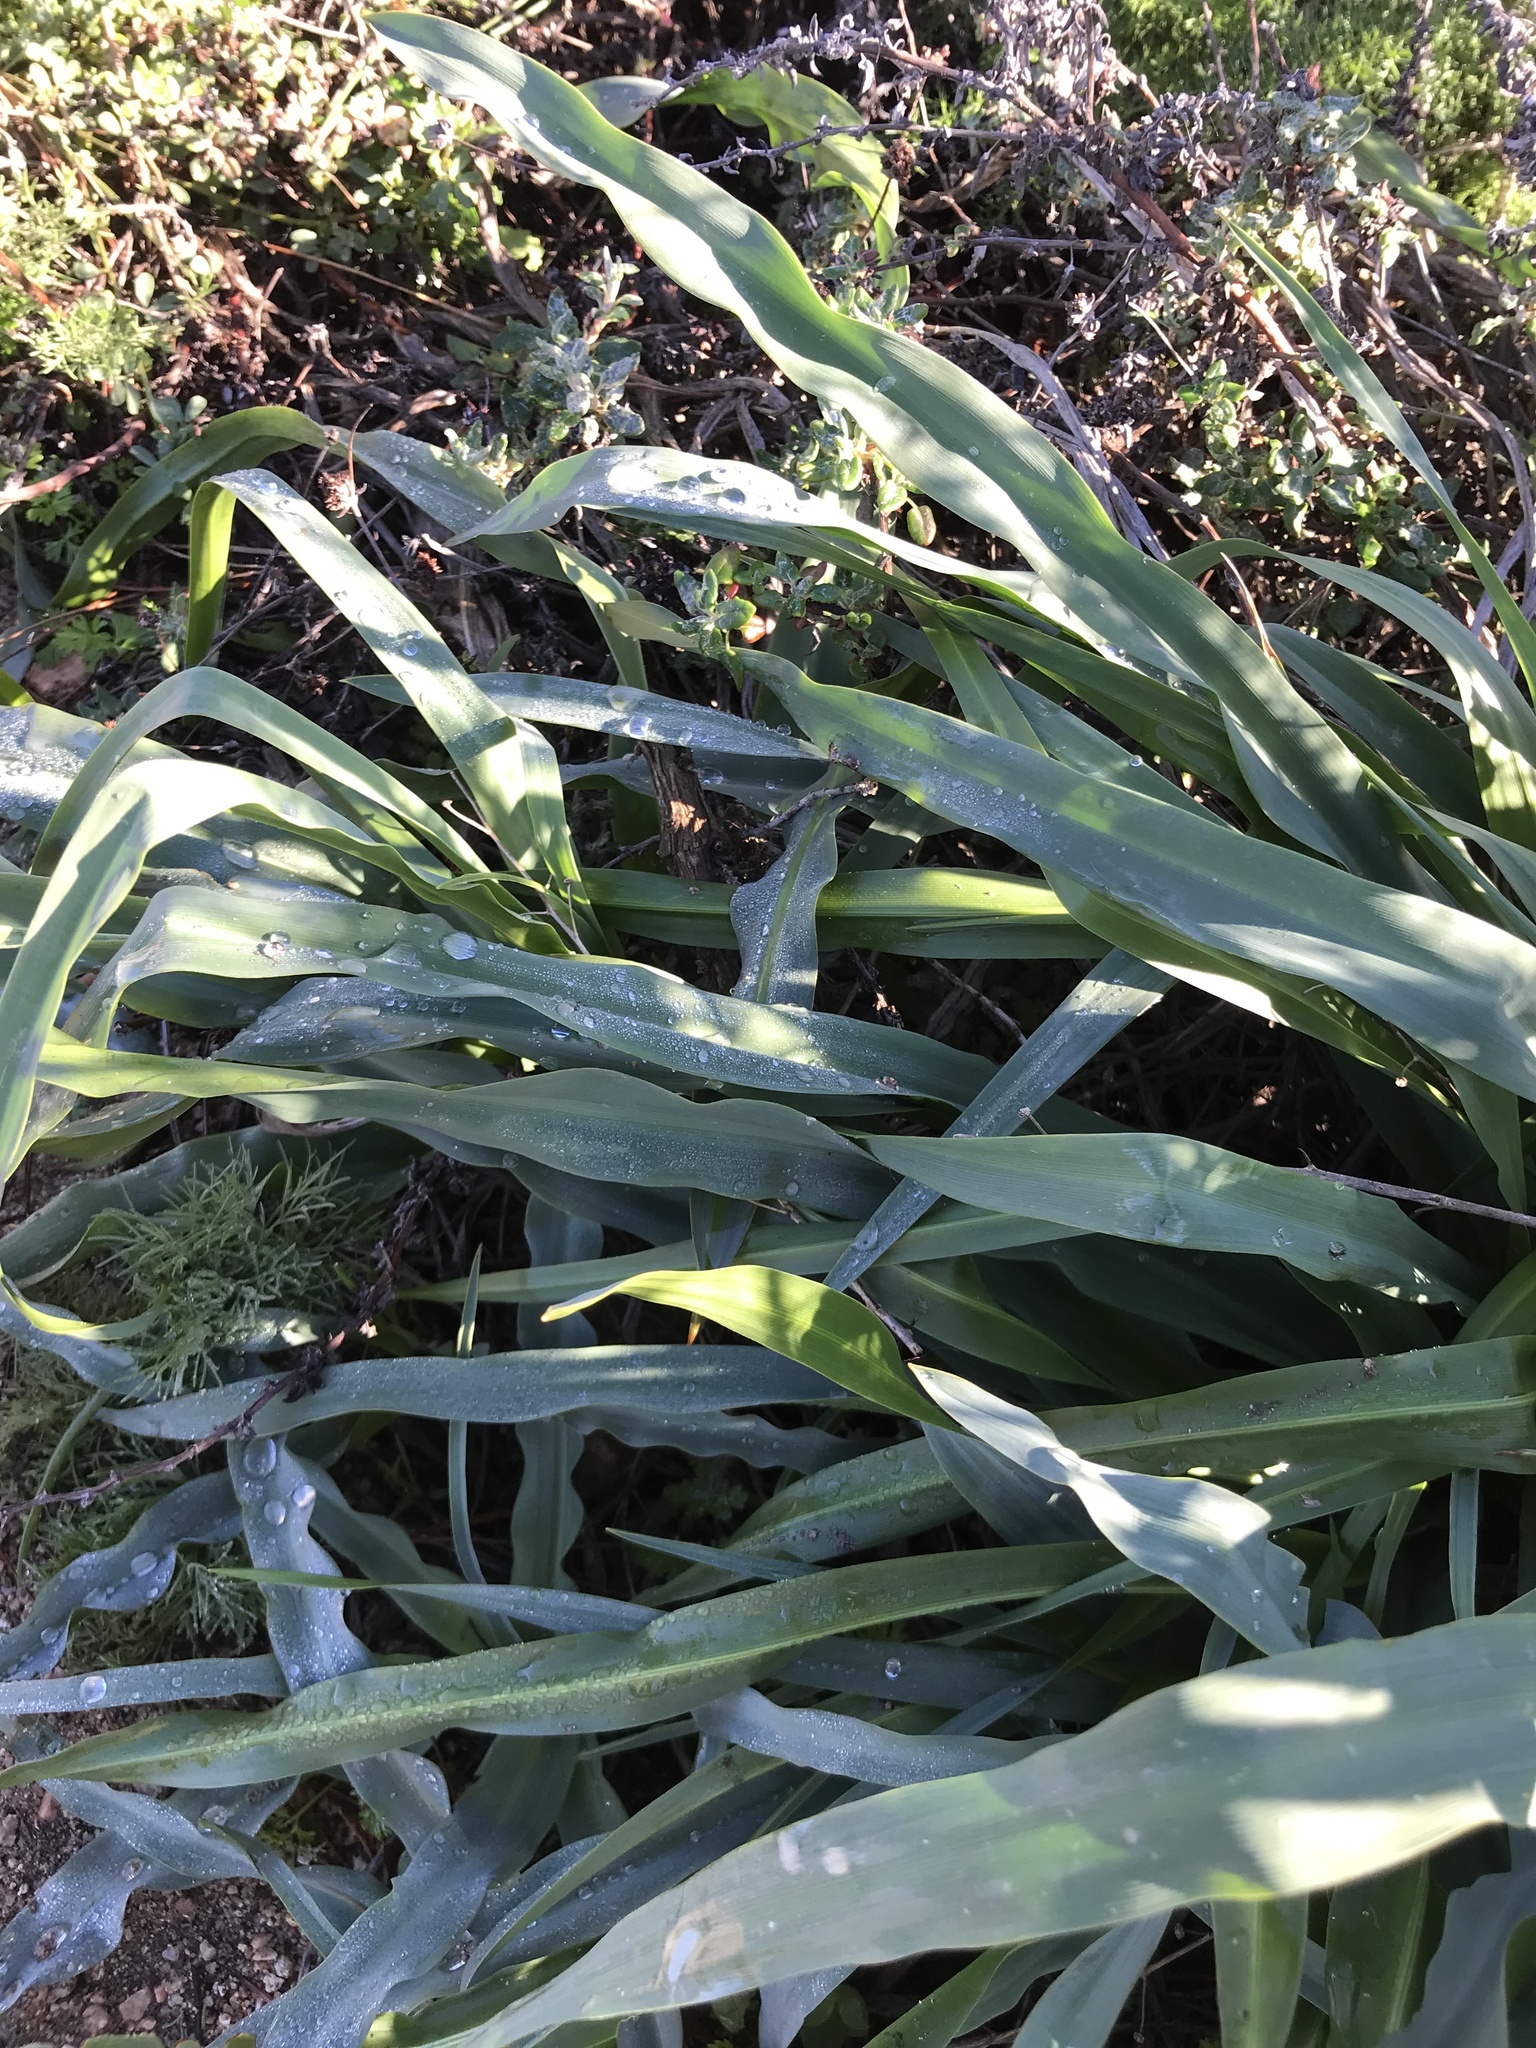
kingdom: Plantae
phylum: Tracheophyta
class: Liliopsida
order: Asparagales
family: Asparagaceae
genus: Chlorogalum
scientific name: Chlorogalum pomeridianum
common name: Amole
